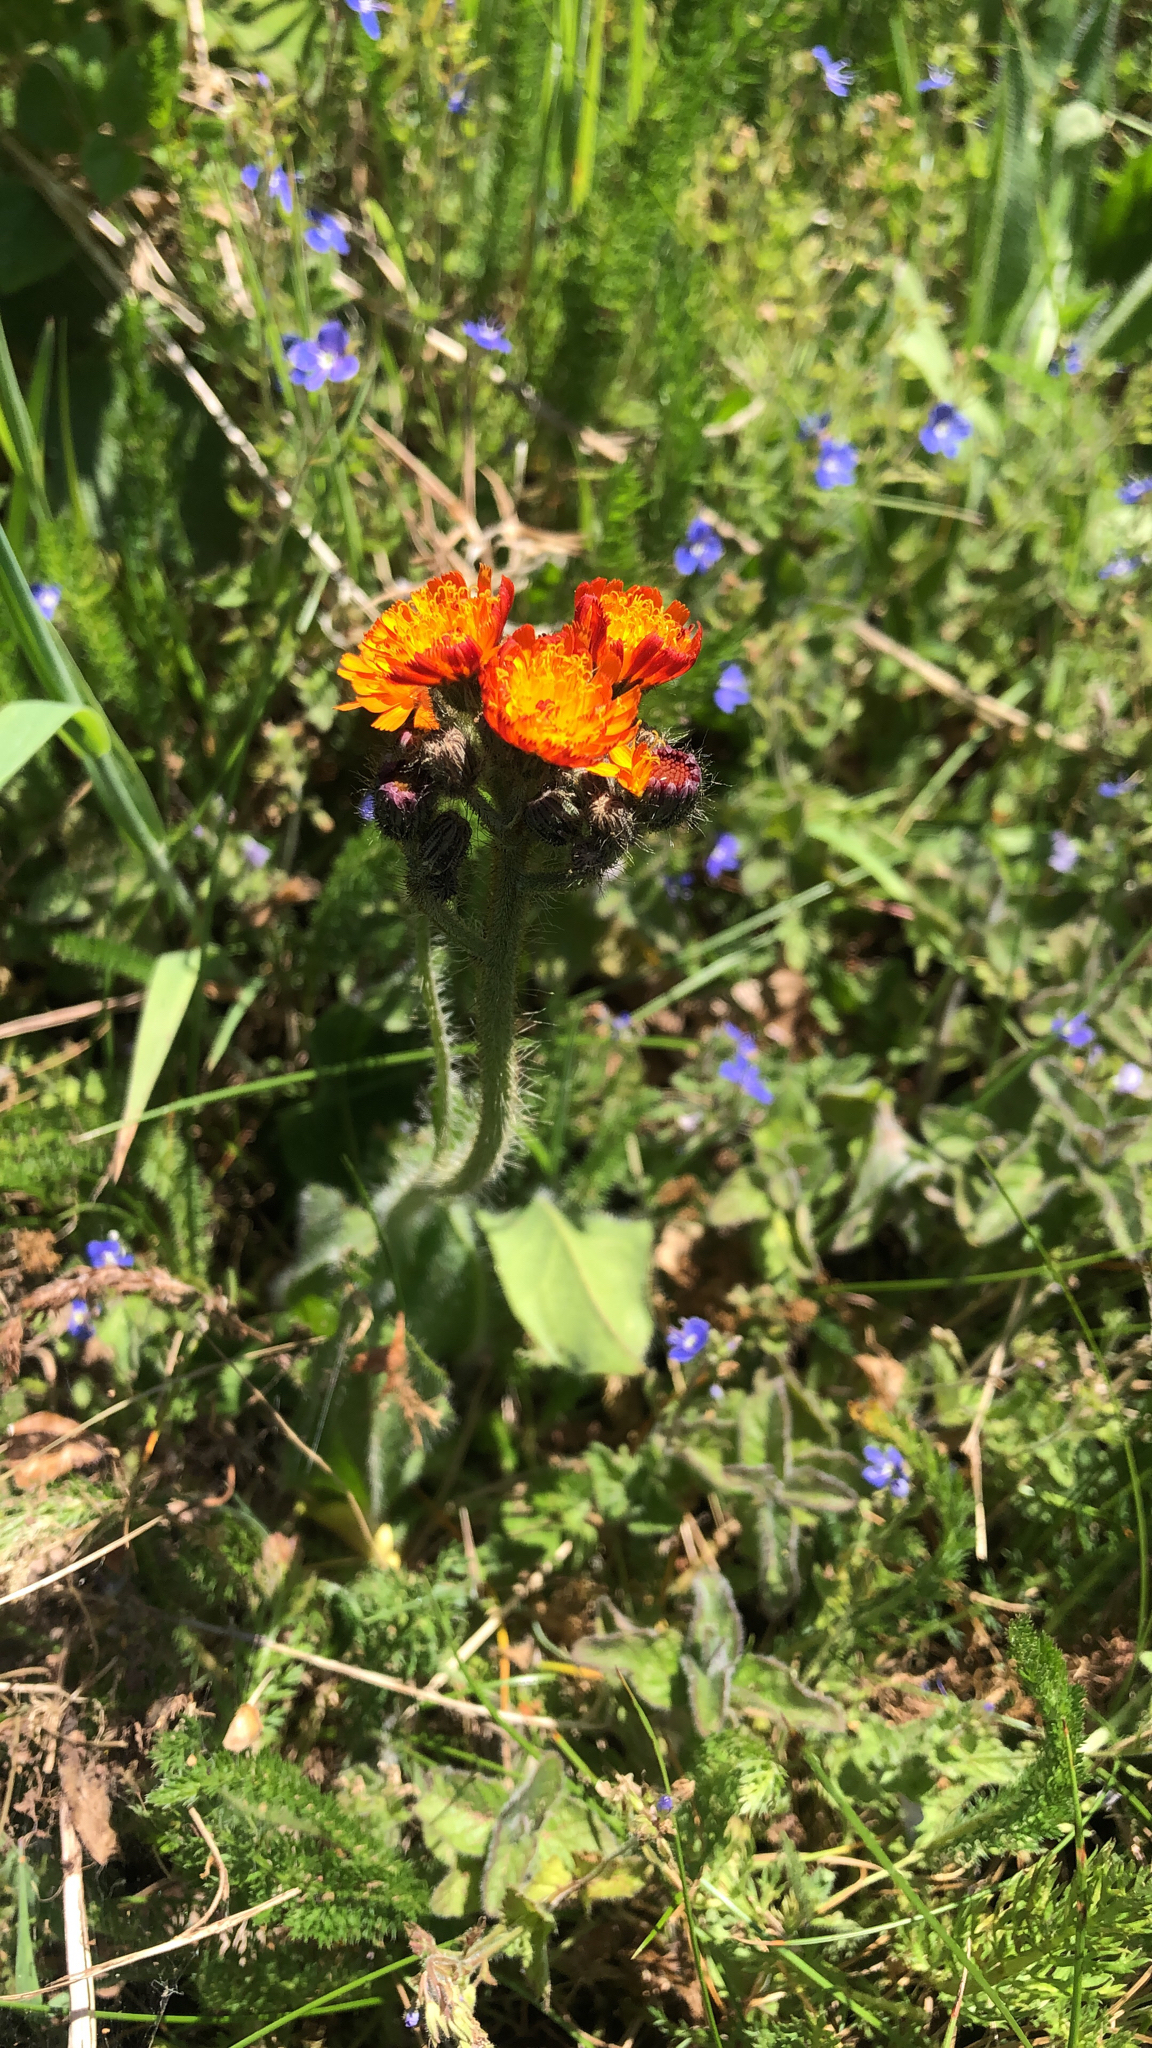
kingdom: Plantae
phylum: Tracheophyta
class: Magnoliopsida
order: Asterales
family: Asteraceae
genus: Pilosella
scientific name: Pilosella aurantiaca
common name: Fox-and-cubs
